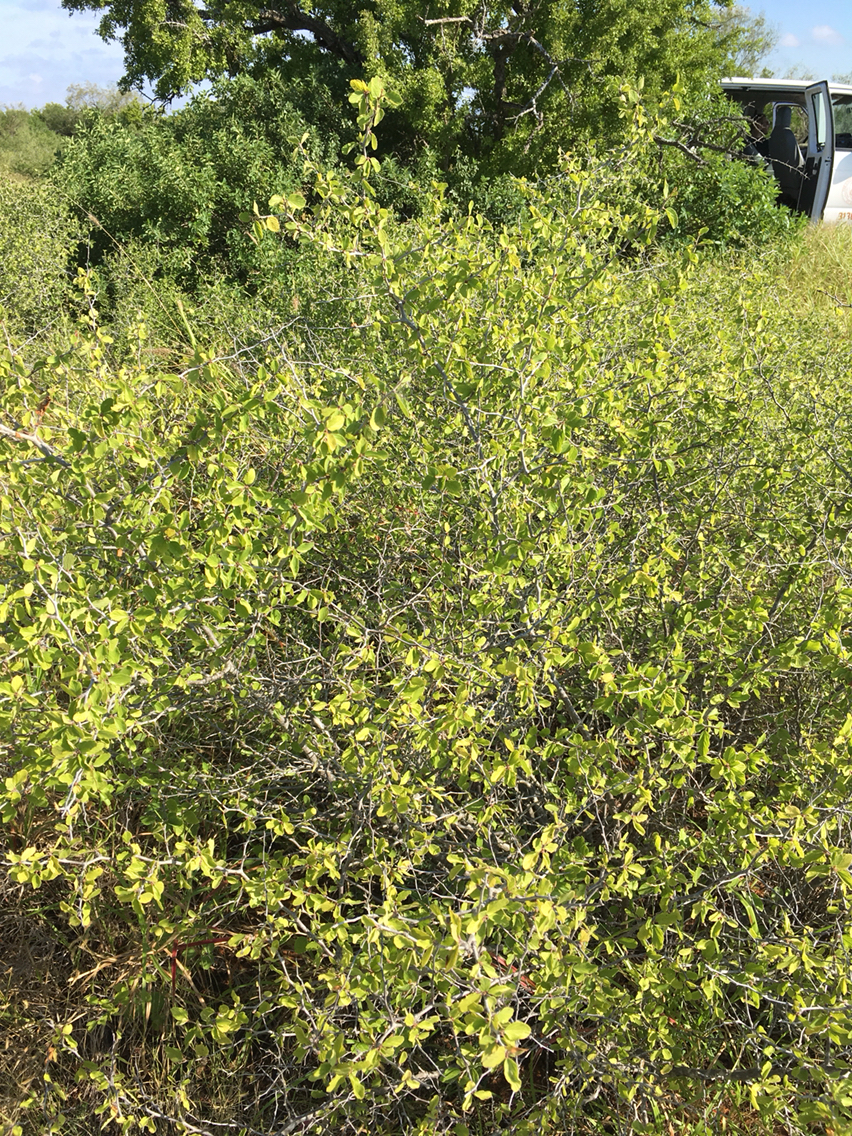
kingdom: Plantae
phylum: Tracheophyta
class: Magnoliopsida
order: Rosales
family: Rhamnaceae
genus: Colubrina
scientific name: Colubrina texensis
